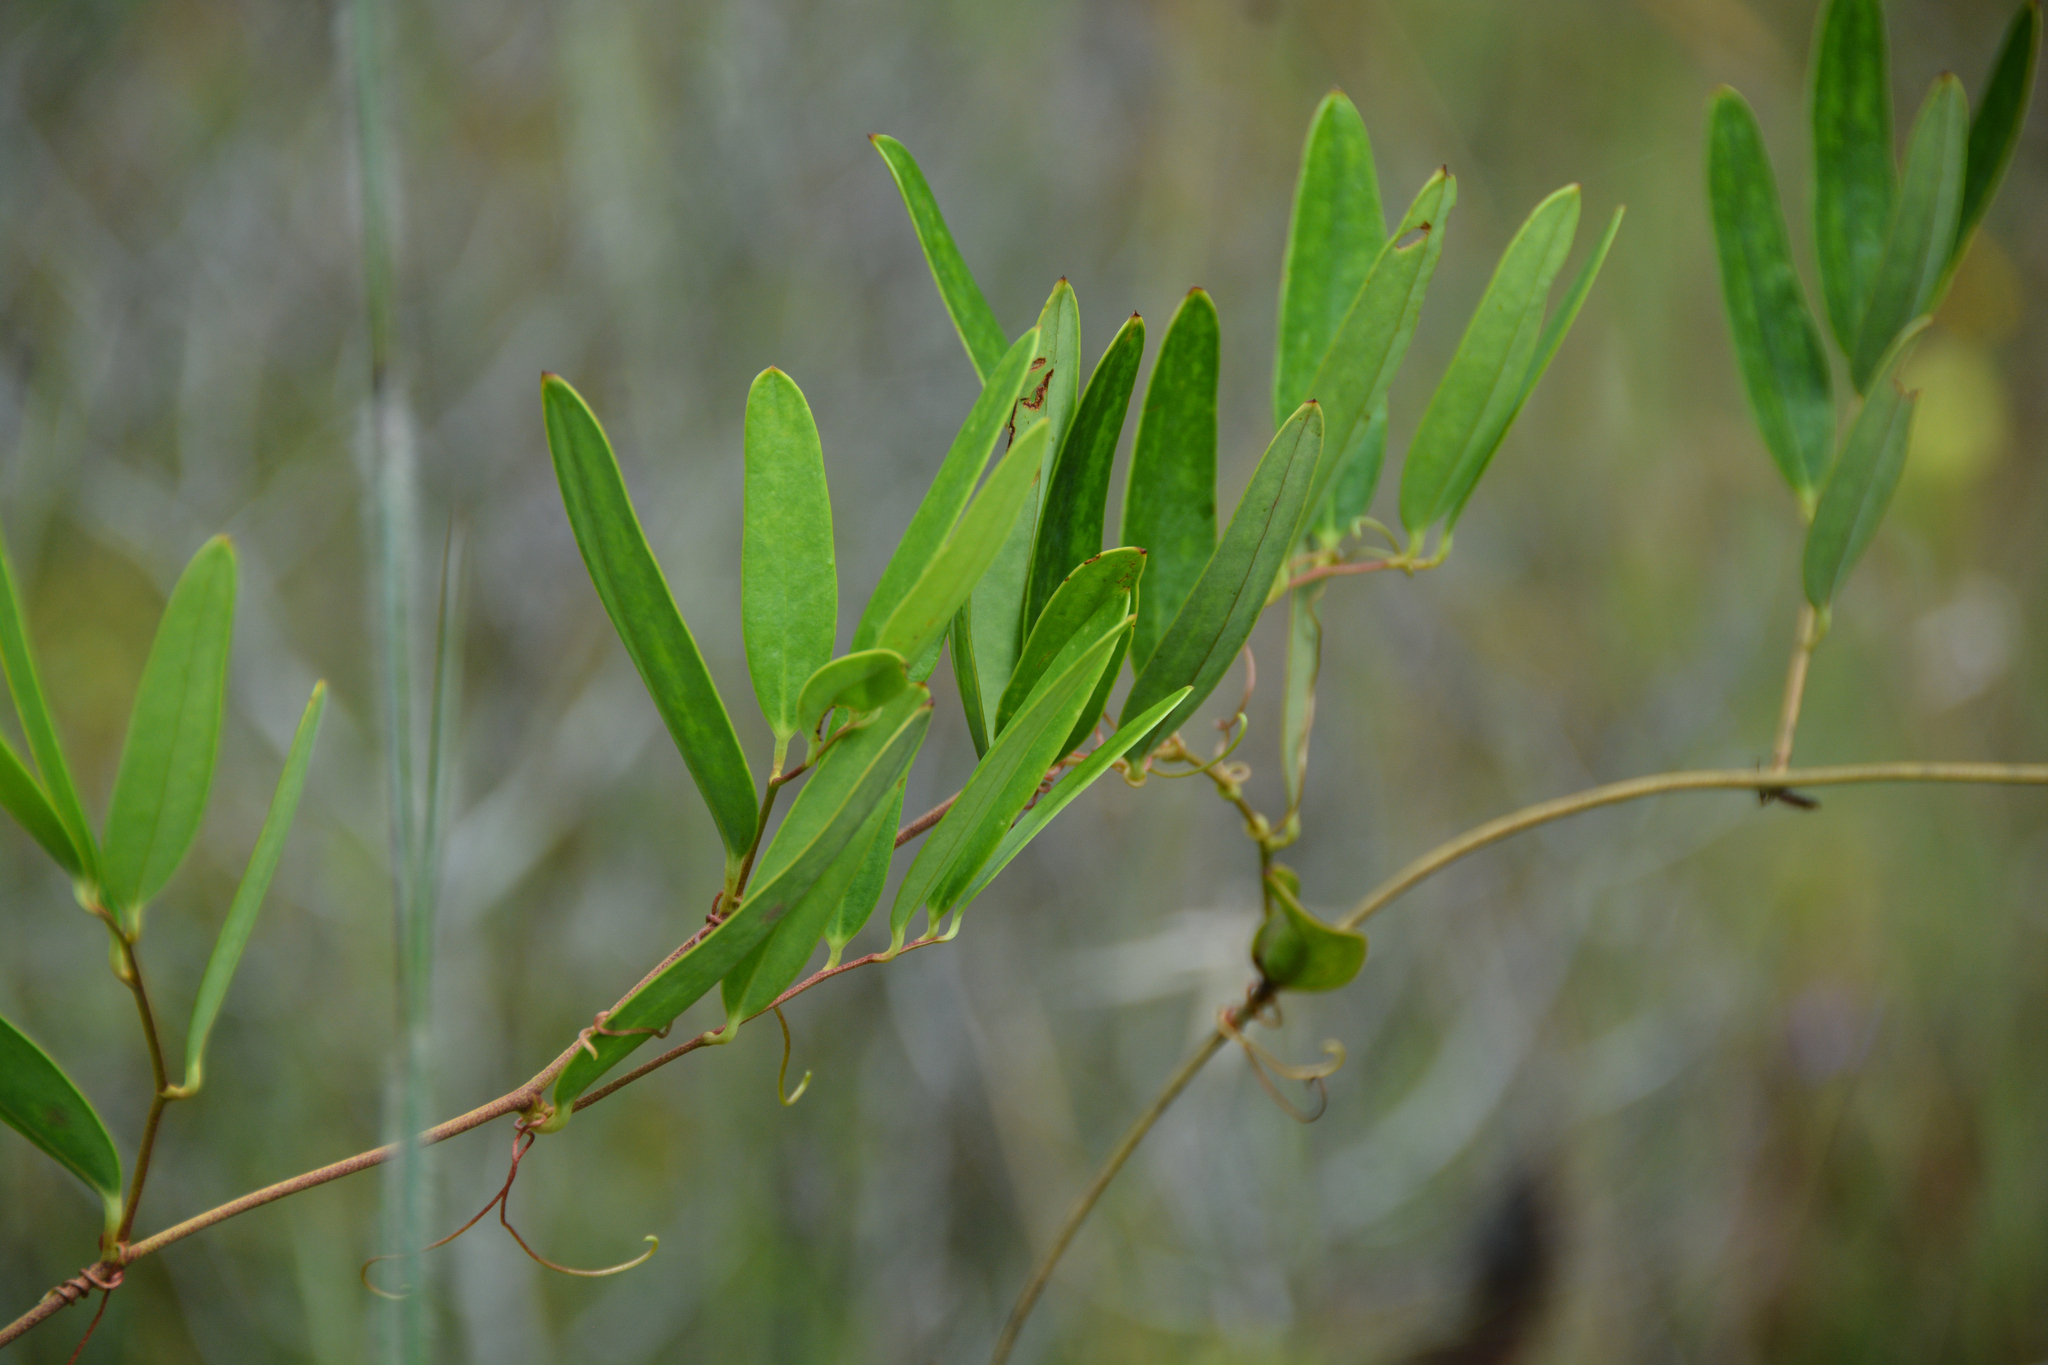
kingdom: Plantae
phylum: Tracheophyta
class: Liliopsida
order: Liliales
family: Smilacaceae
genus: Smilax
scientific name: Smilax laurifolia
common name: Bamboovine
